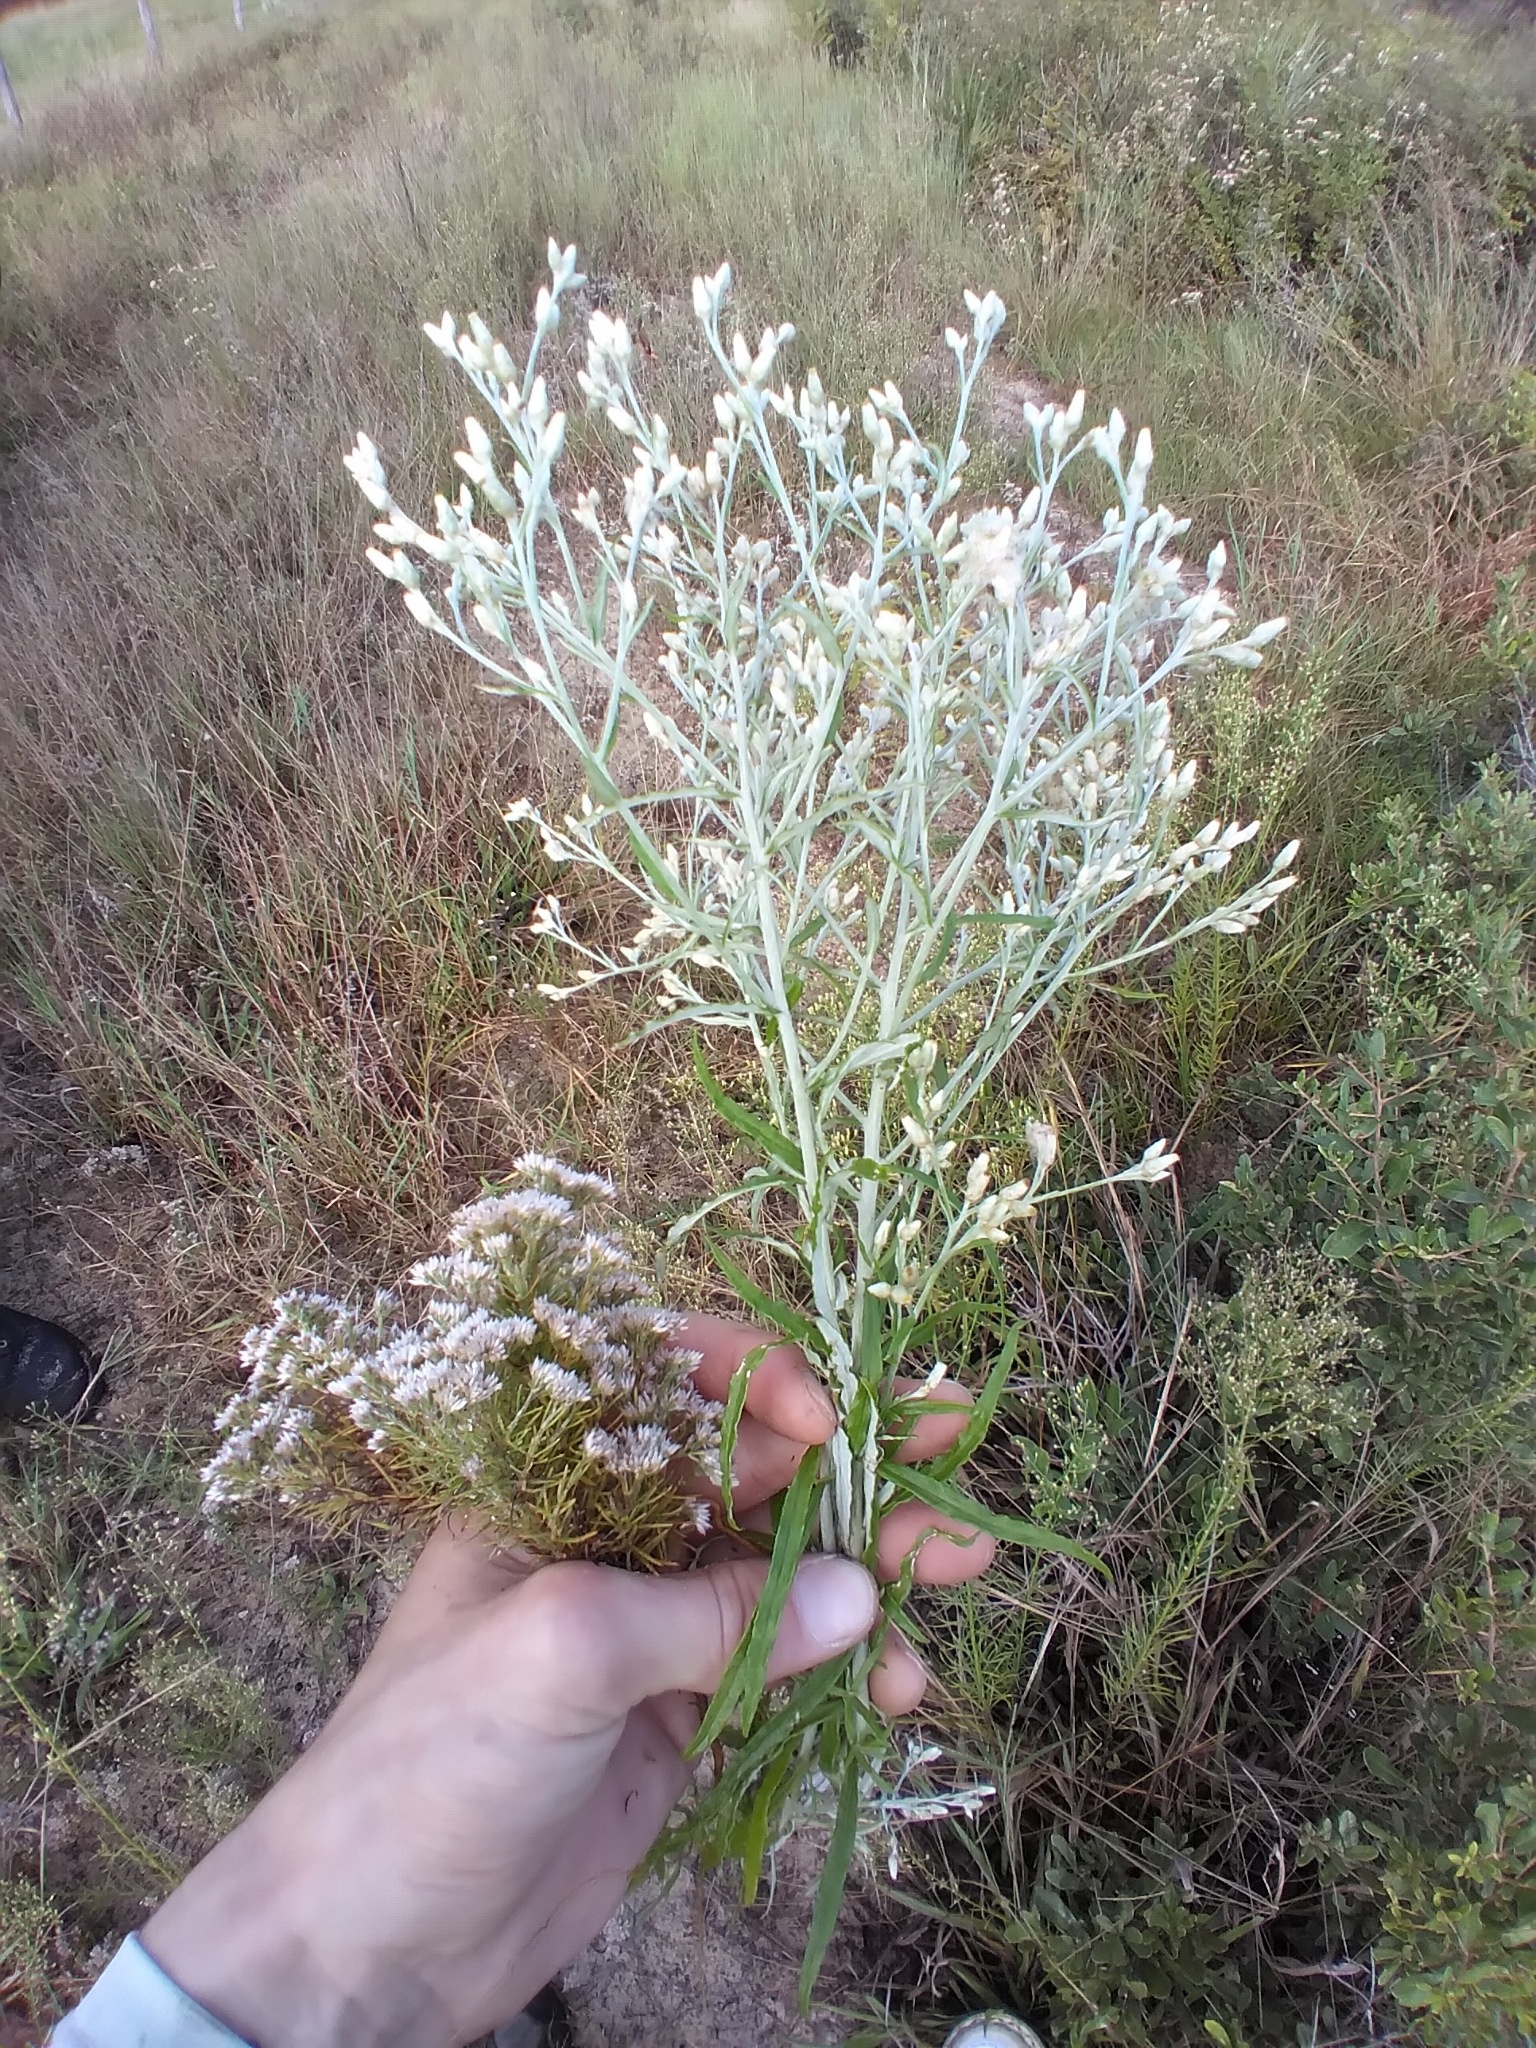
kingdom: Plantae
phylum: Tracheophyta
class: Magnoliopsida
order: Asterales
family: Asteraceae
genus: Pseudognaphalium
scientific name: Pseudognaphalium obtusifolium
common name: Eastern rabbit-tobacco
